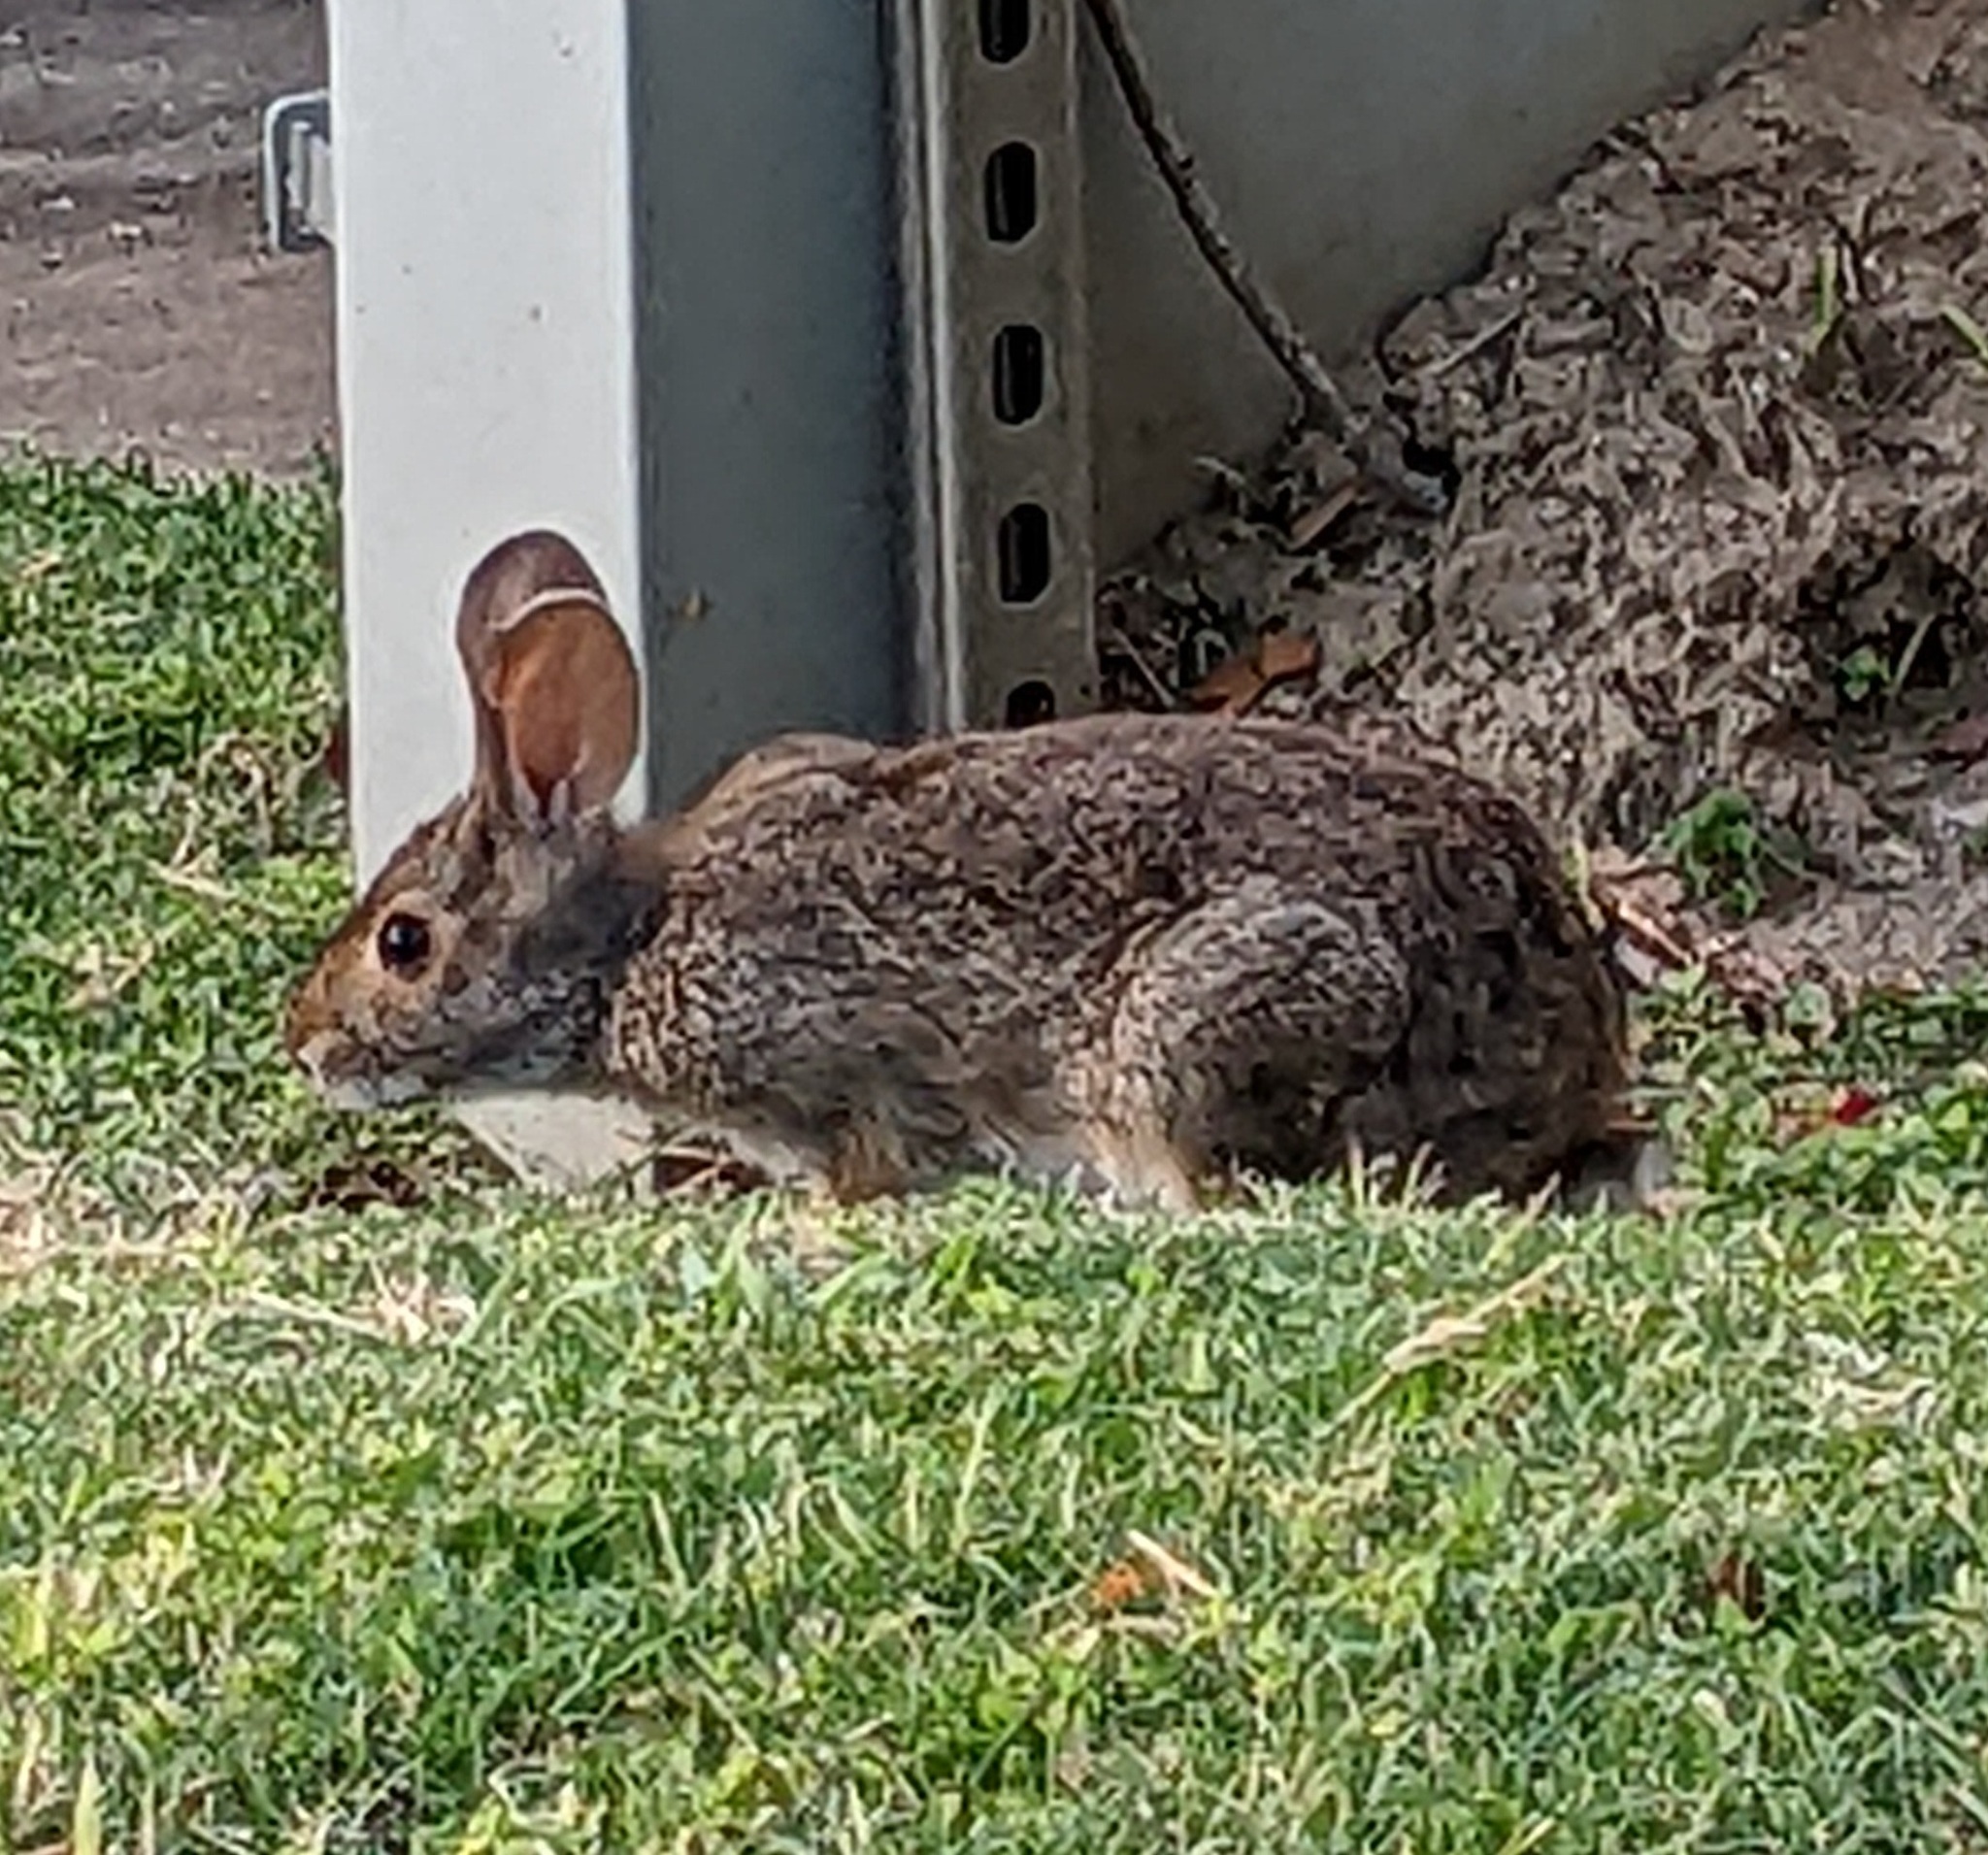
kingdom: Animalia
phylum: Chordata
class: Mammalia
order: Lagomorpha
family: Leporidae
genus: Sylvilagus
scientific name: Sylvilagus aquaticus
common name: Swamp rabbit
